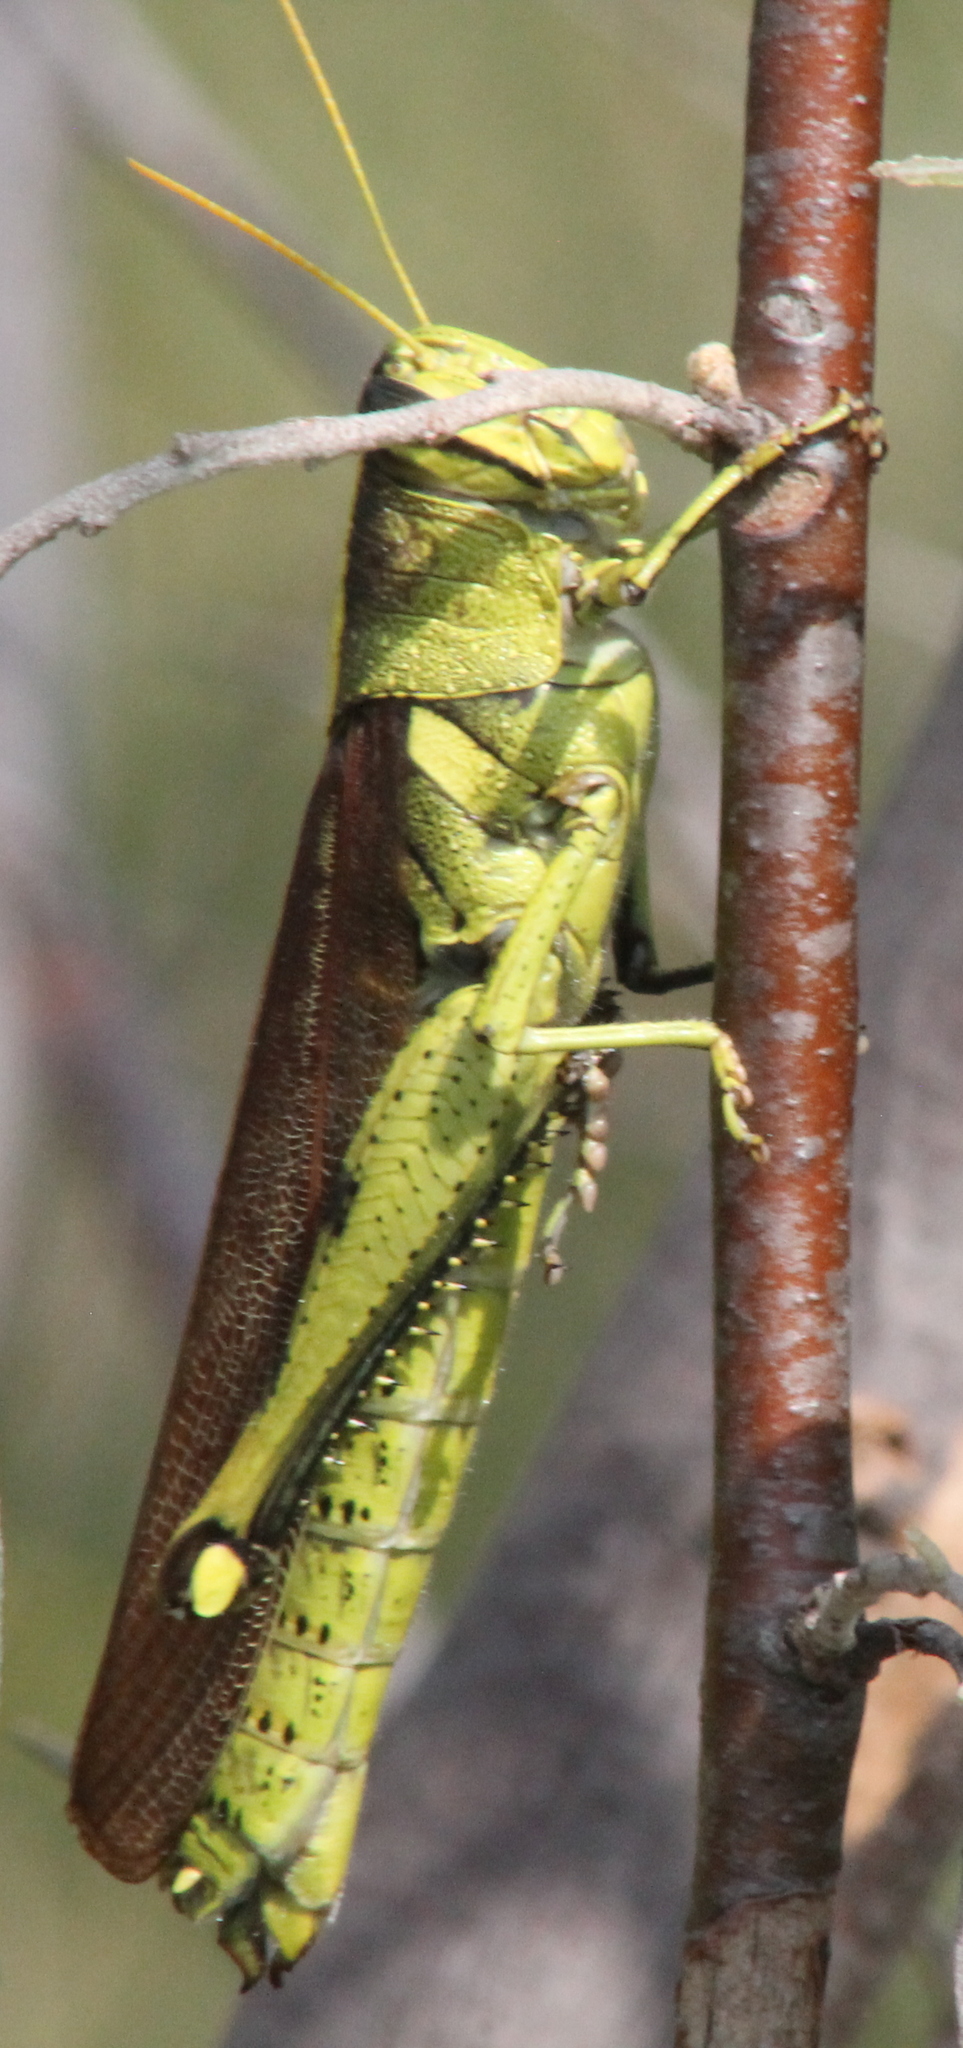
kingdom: Animalia
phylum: Arthropoda
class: Insecta
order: Orthoptera
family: Acrididae
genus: Schistocerca
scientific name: Schistocerca obscura
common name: Obscure bird grasshopper
